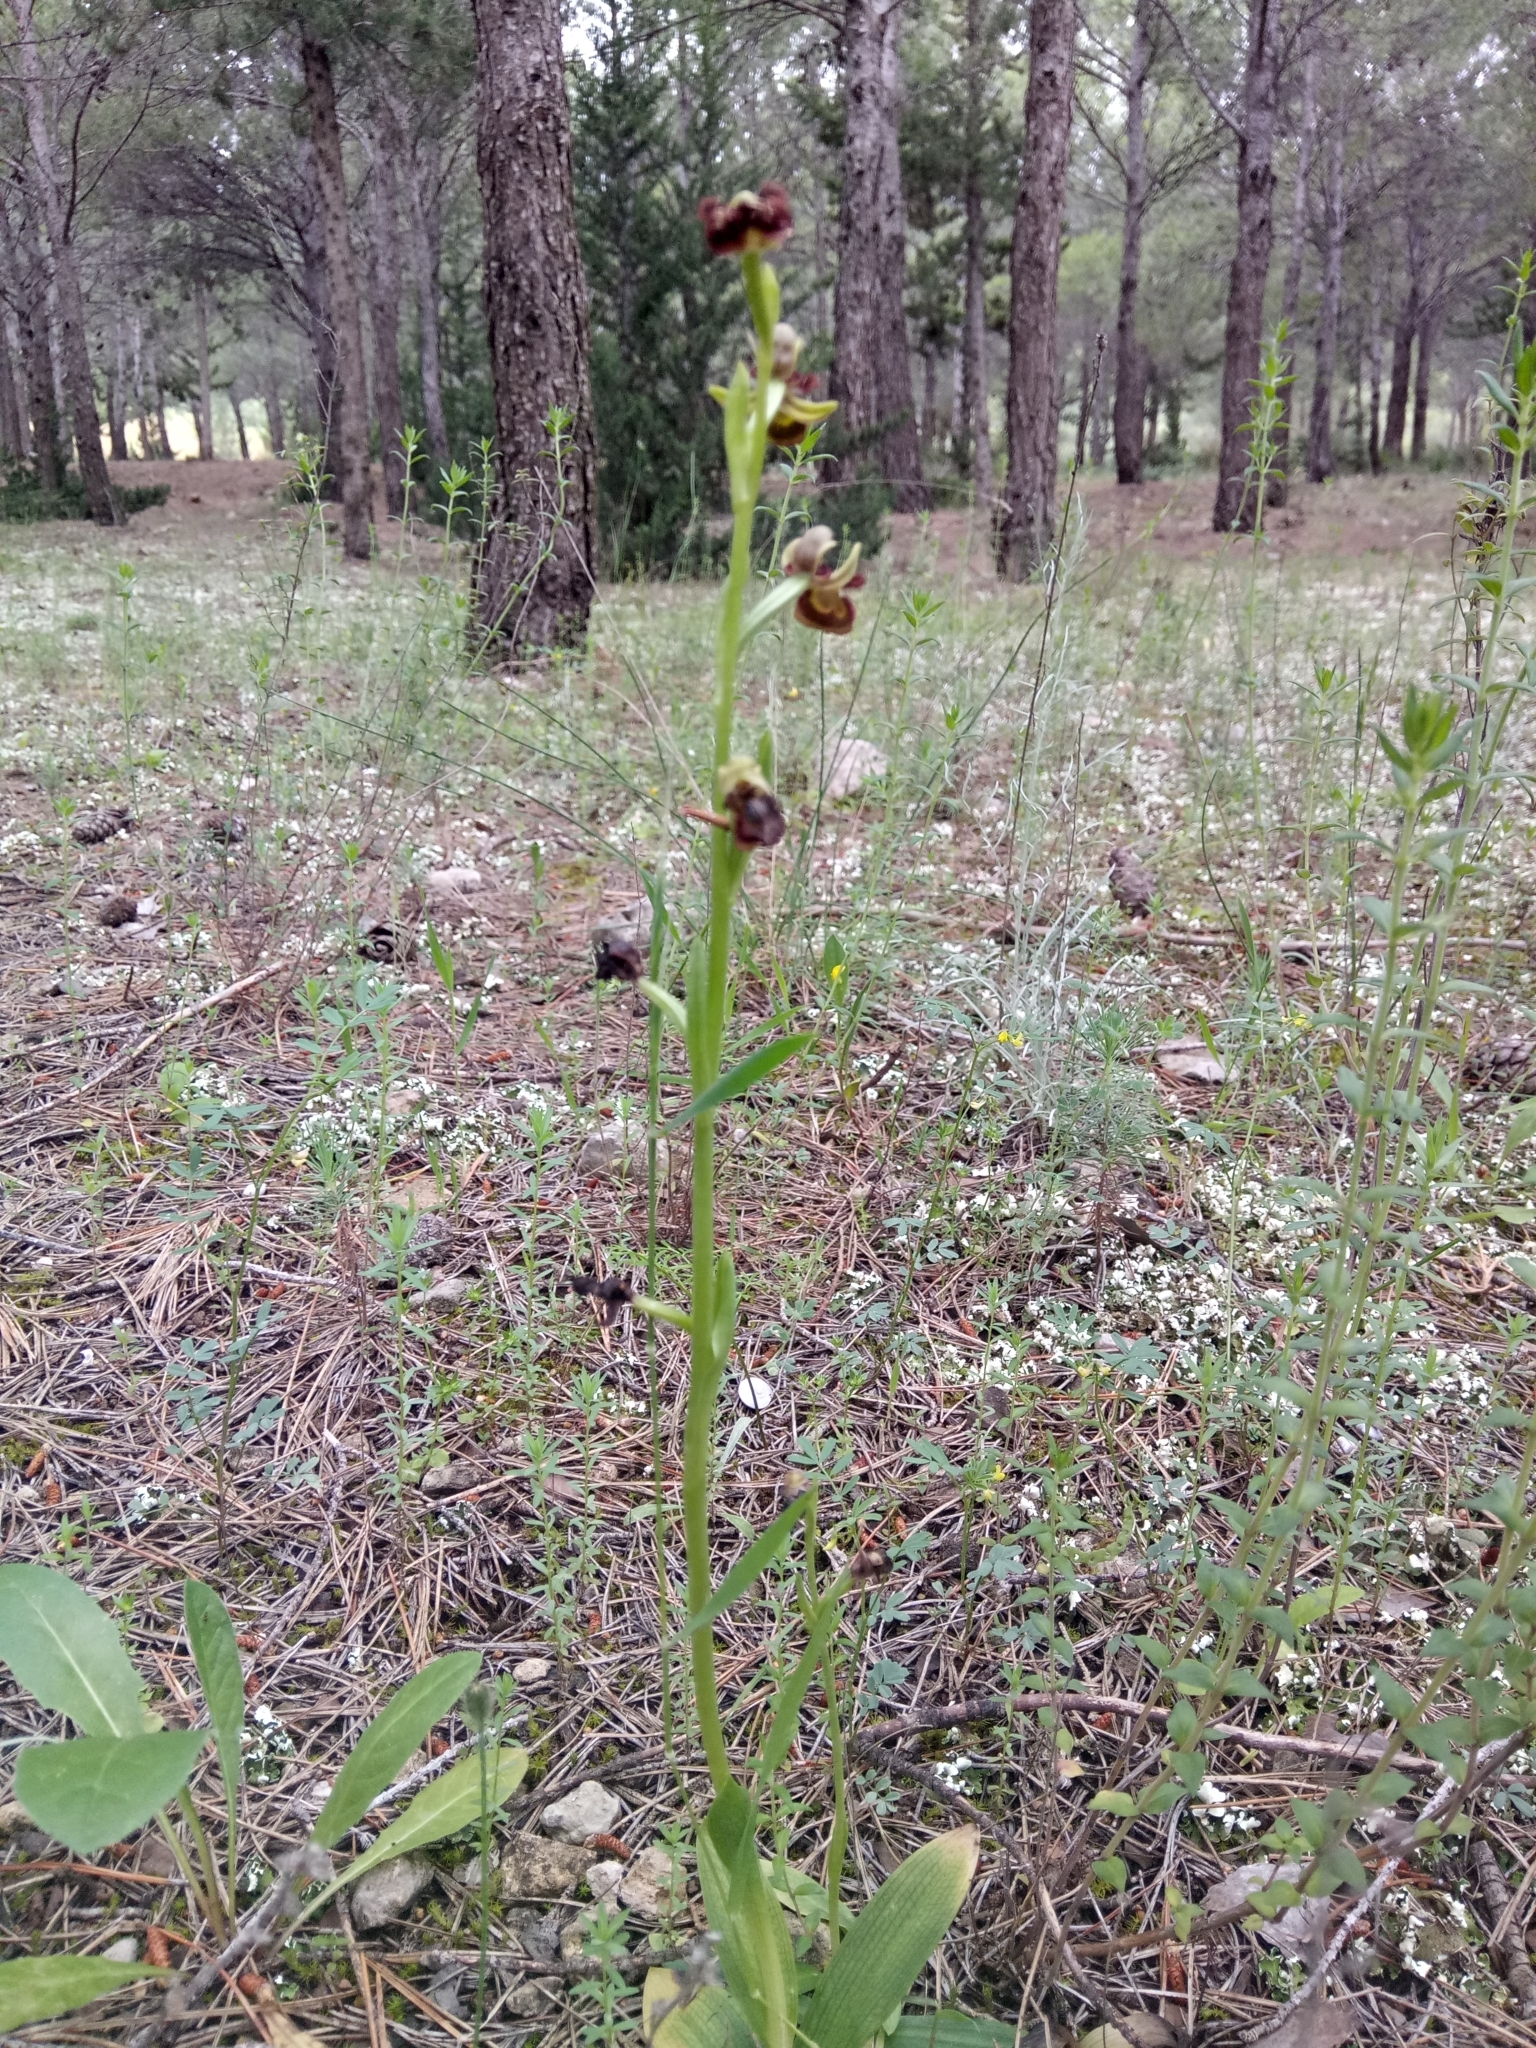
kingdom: Plantae
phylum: Tracheophyta
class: Liliopsida
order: Asparagales
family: Orchidaceae
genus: Ophrys
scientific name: Ophrys speculum
